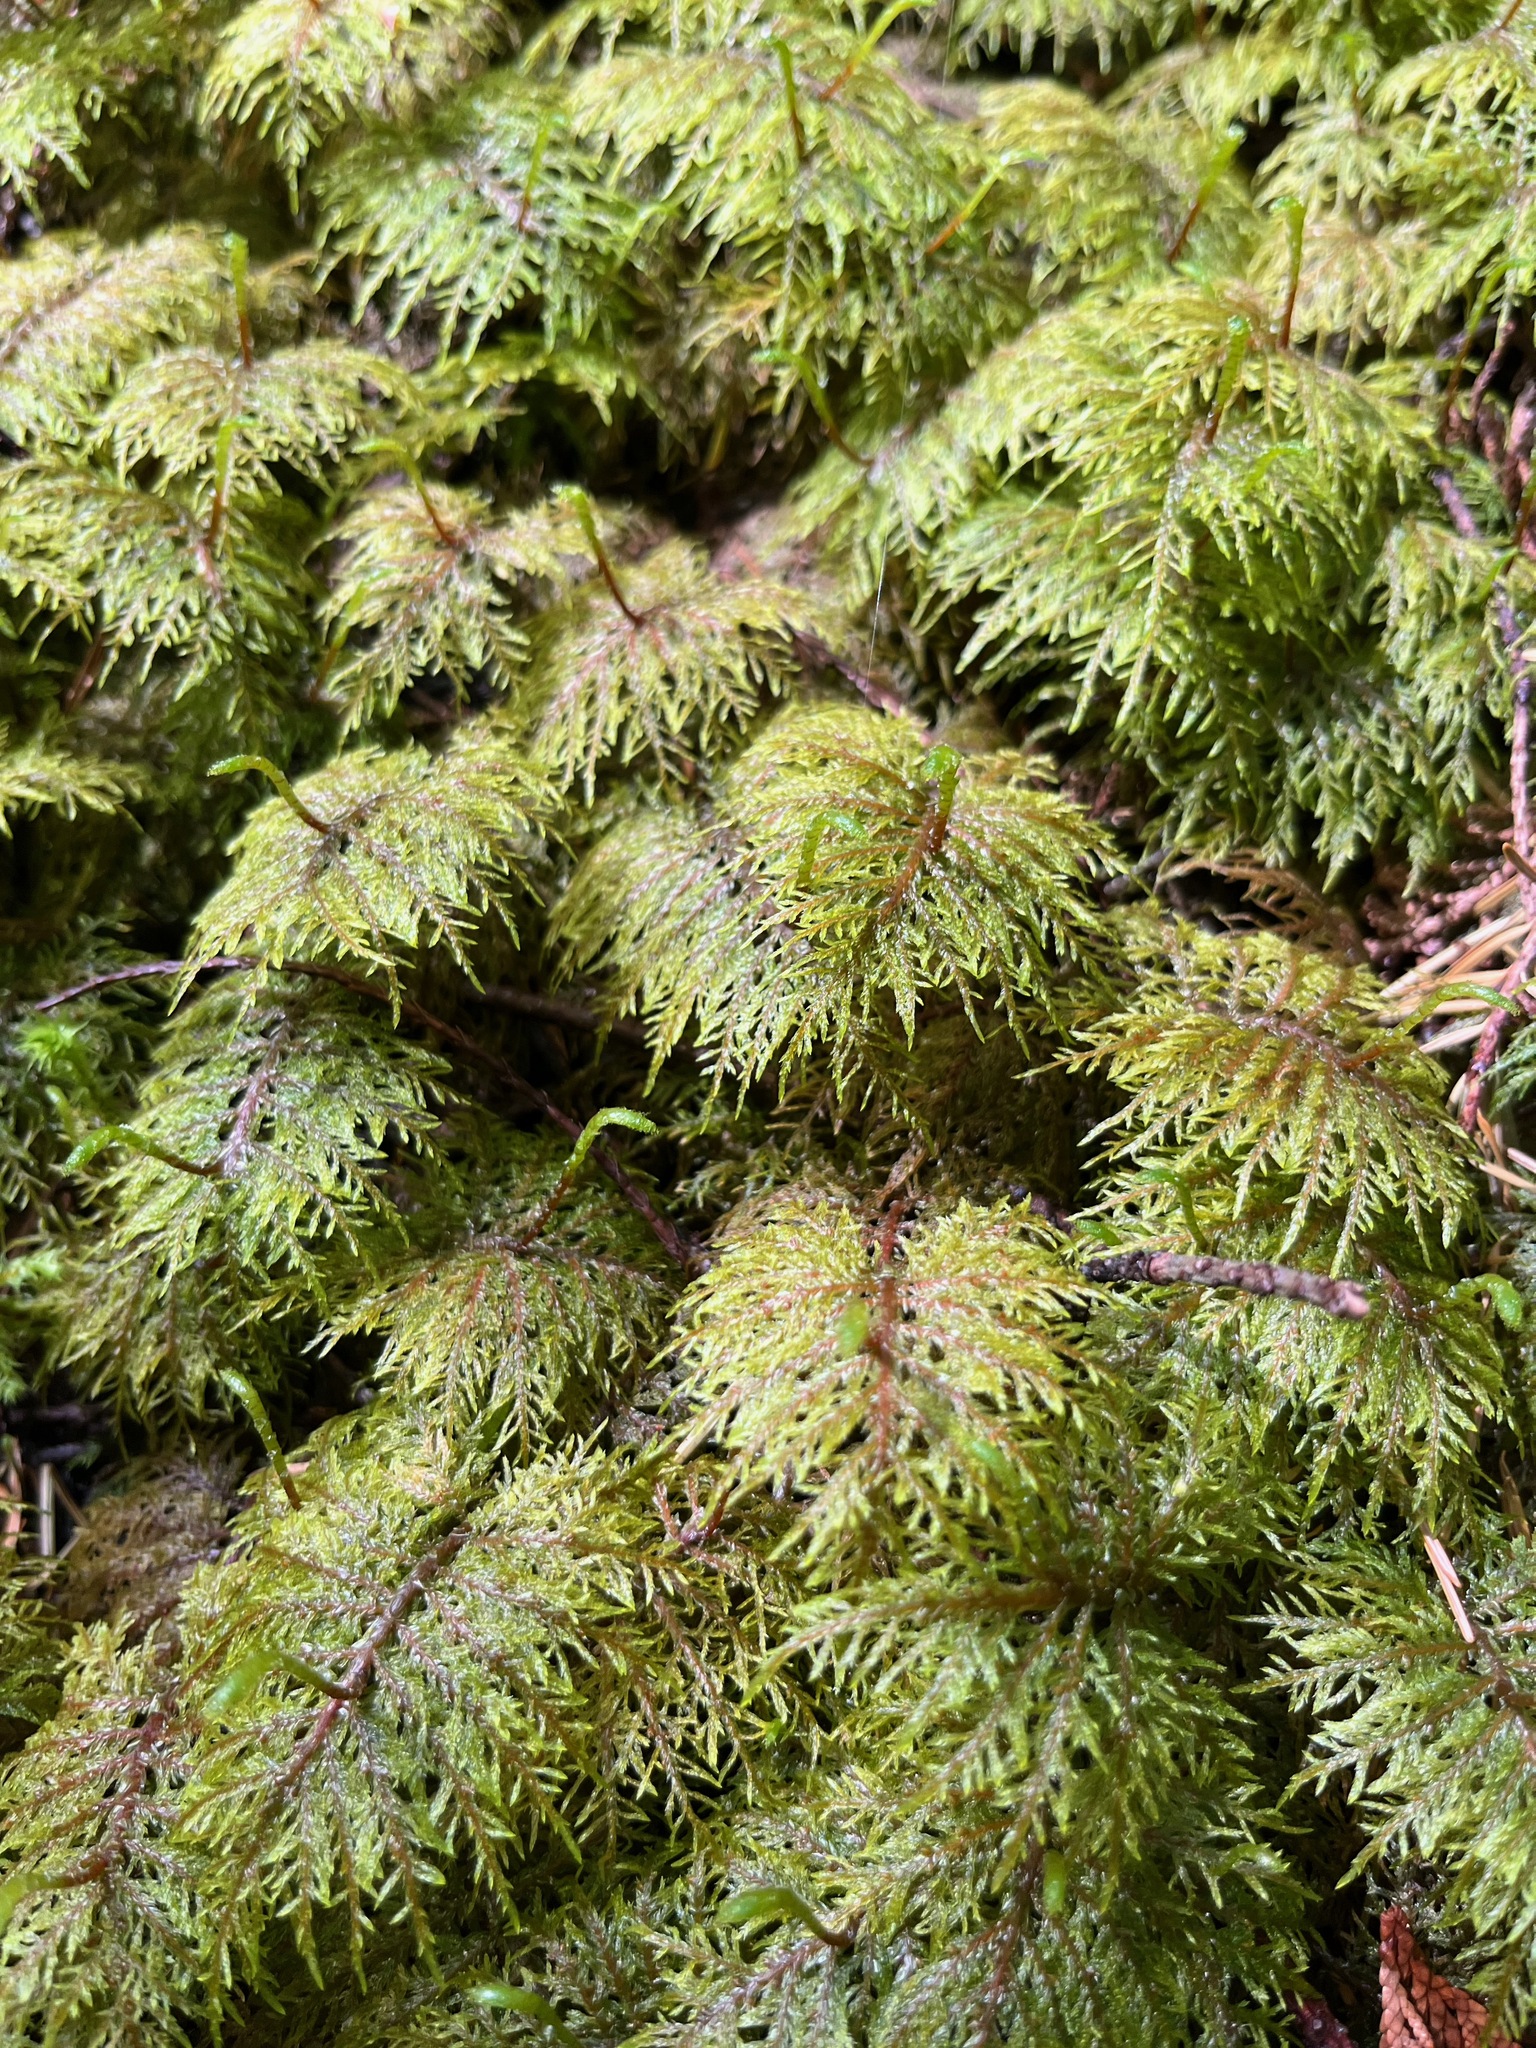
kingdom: Plantae
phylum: Bryophyta
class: Bryopsida
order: Hypnales
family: Hylocomiaceae
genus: Hylocomium
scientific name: Hylocomium splendens
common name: Stairstep moss
